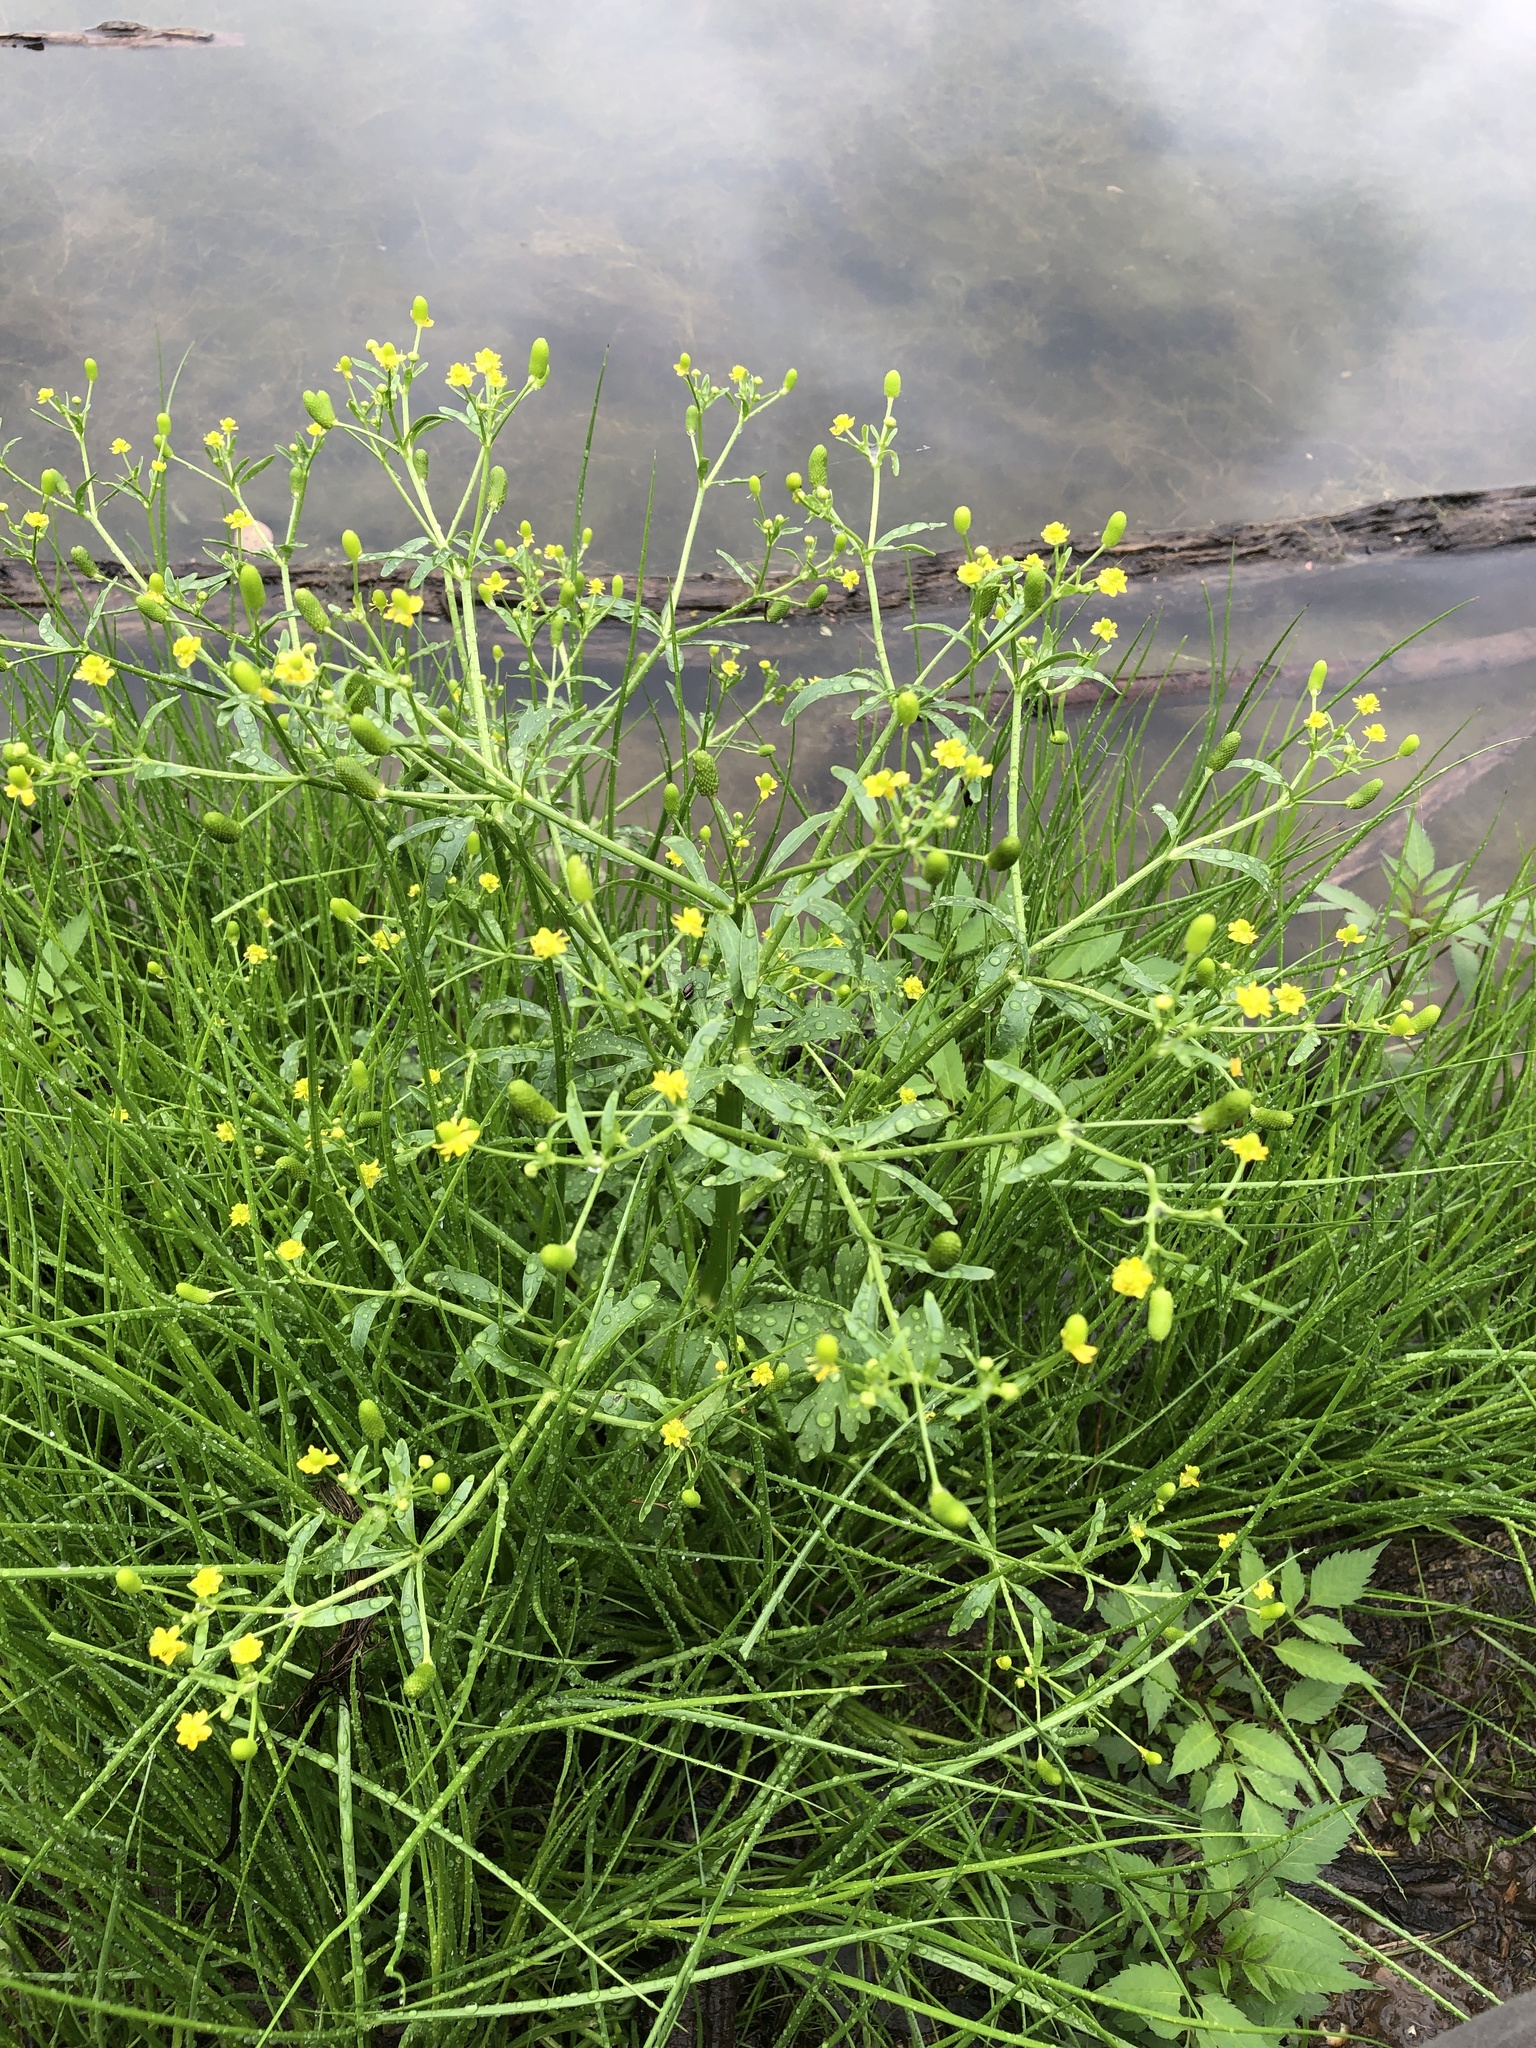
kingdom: Plantae
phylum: Tracheophyta
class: Magnoliopsida
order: Ranunculales
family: Ranunculaceae
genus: Ranunculus
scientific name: Ranunculus sceleratus
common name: Celery-leaved buttercup
